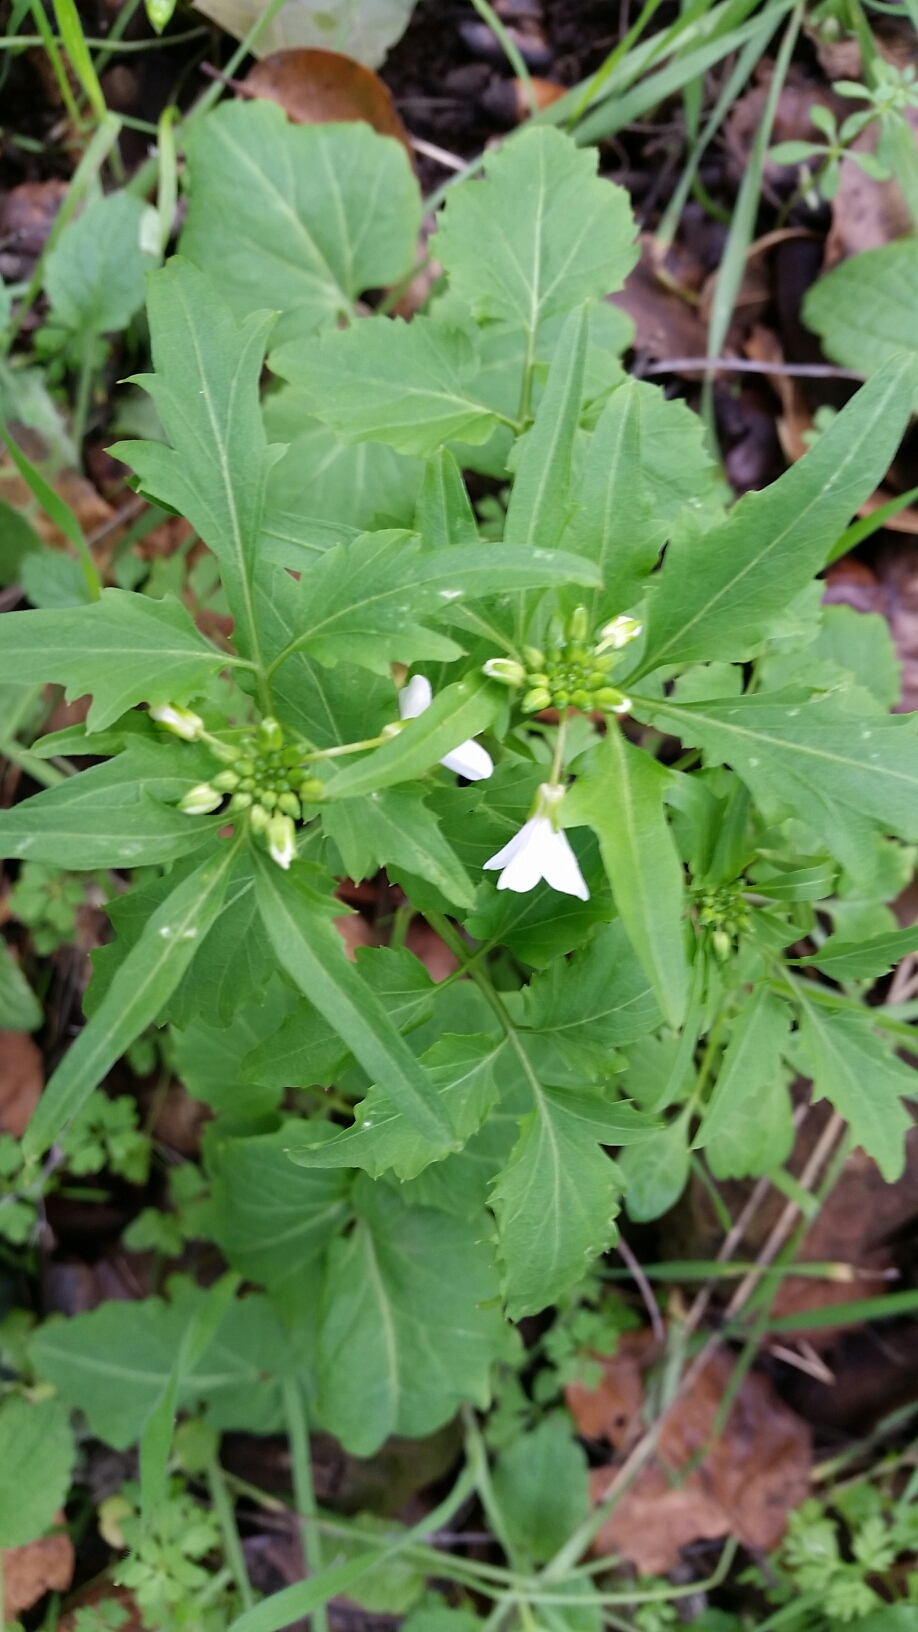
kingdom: Plantae
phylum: Tracheophyta
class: Magnoliopsida
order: Brassicales
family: Brassicaceae
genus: Cardamine
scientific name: Cardamine californica
